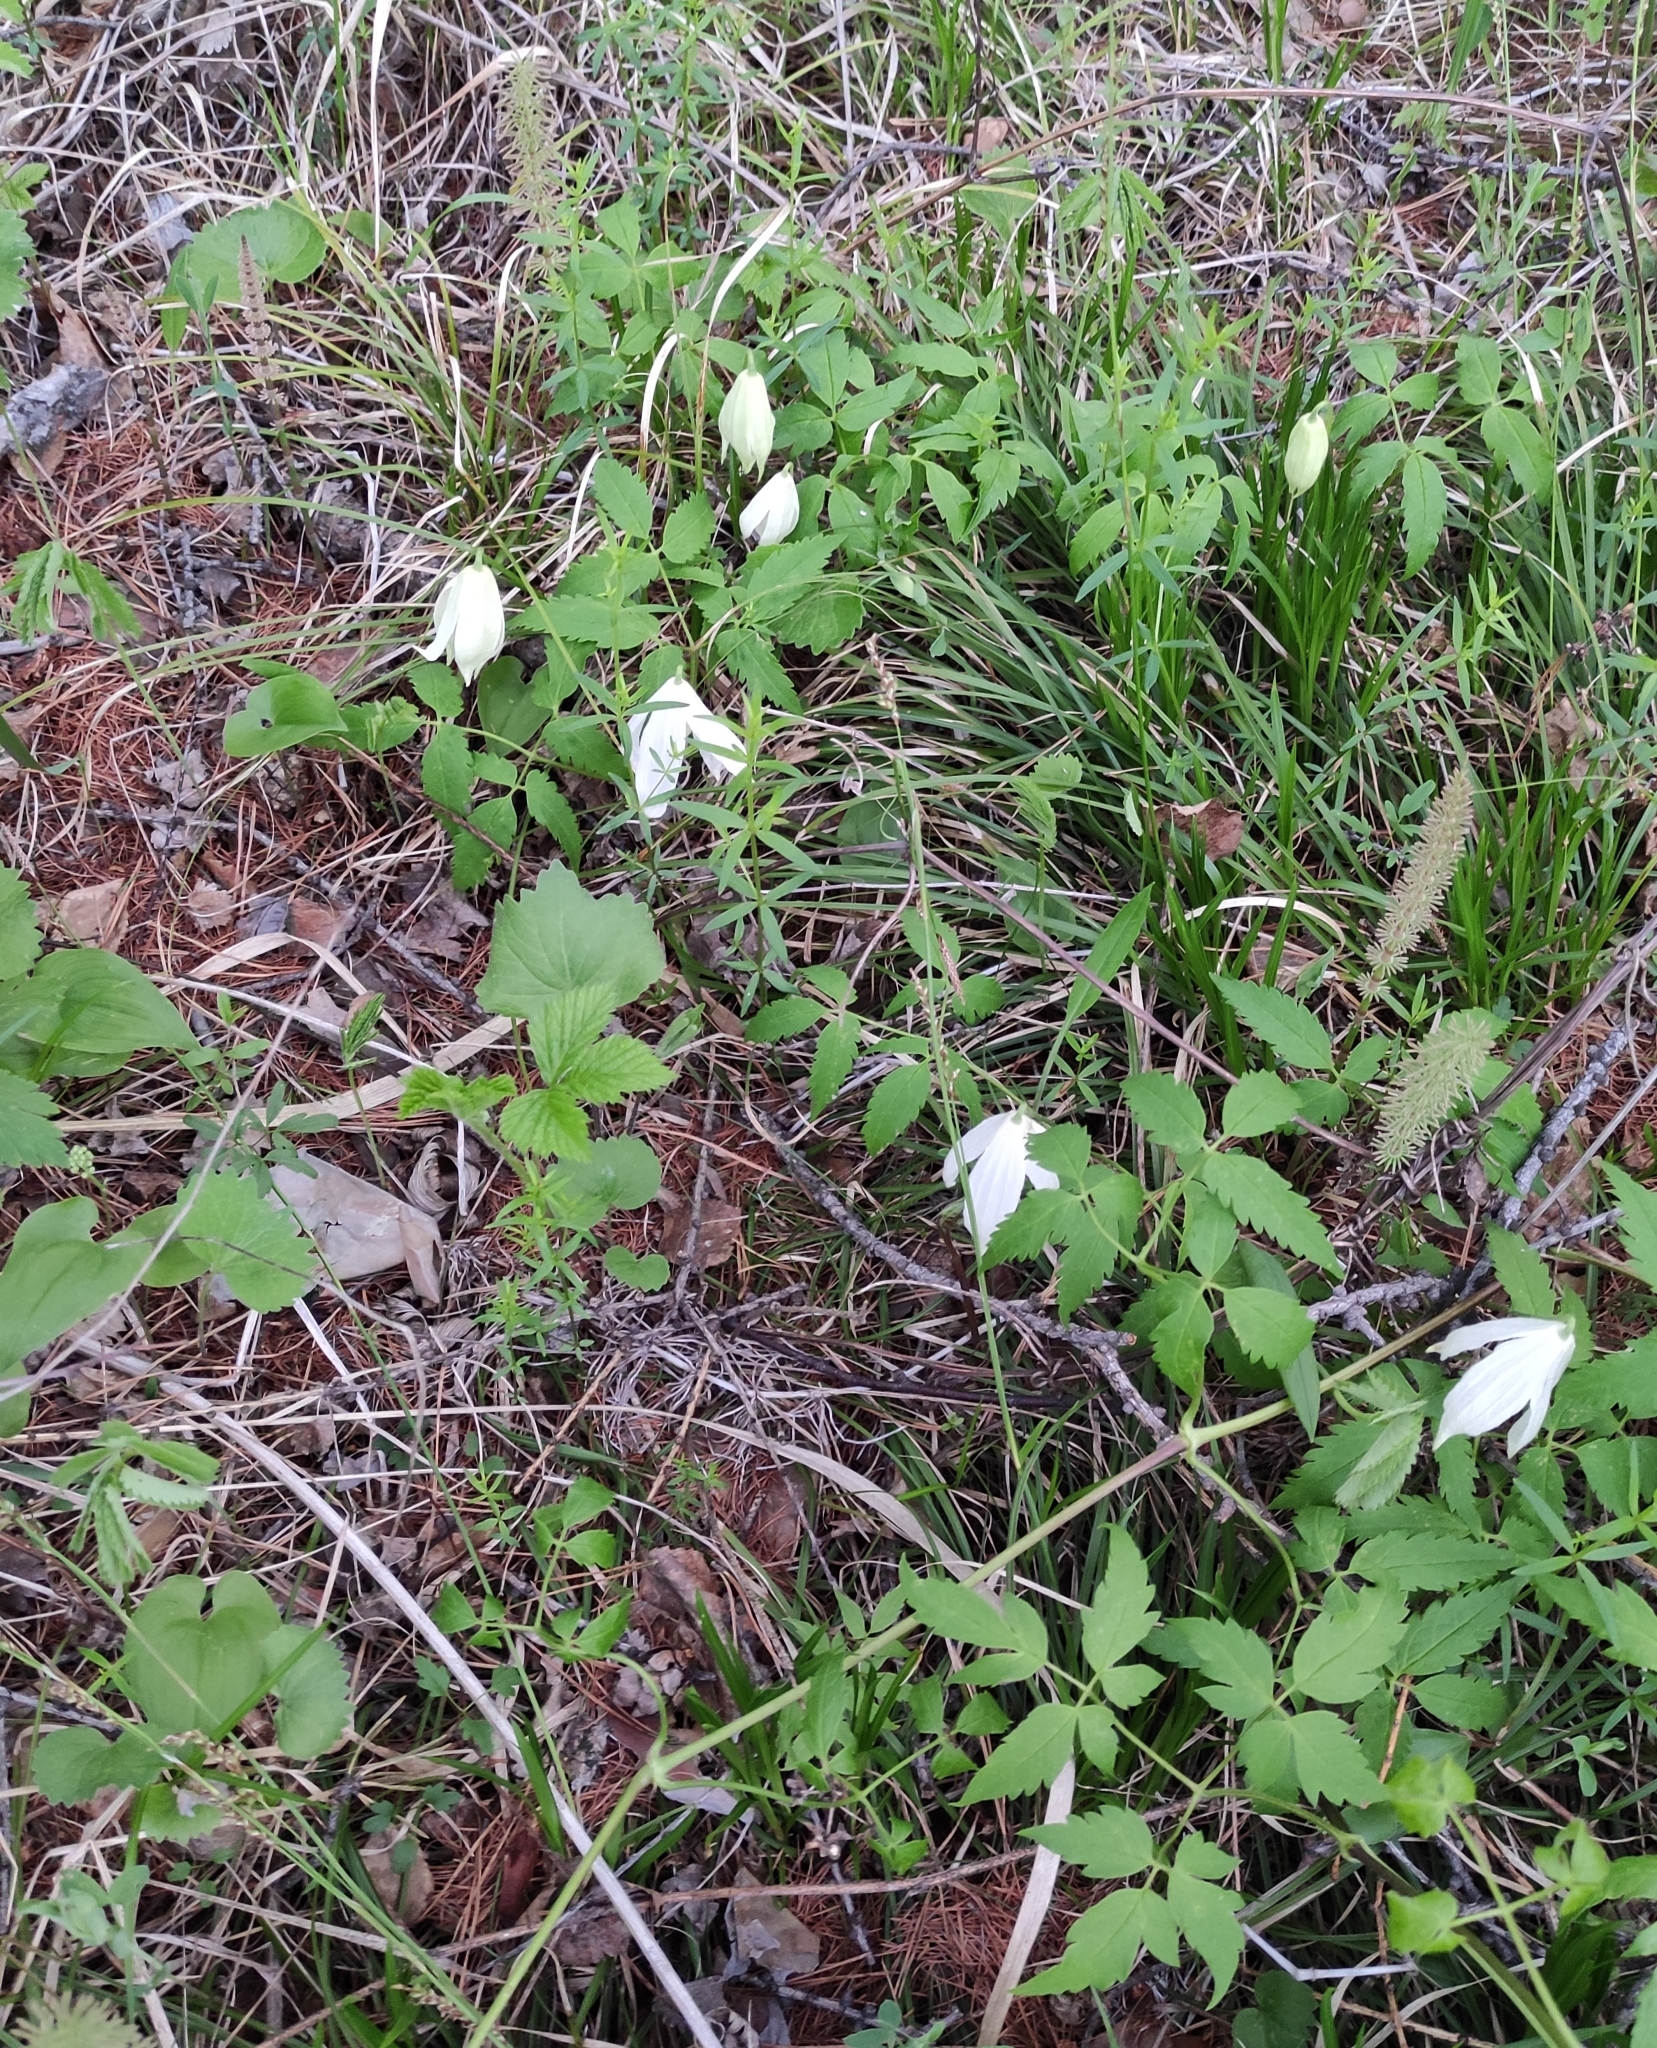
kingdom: Plantae
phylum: Tracheophyta
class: Magnoliopsida
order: Ranunculales
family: Ranunculaceae
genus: Clematis
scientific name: Clematis sibirica
